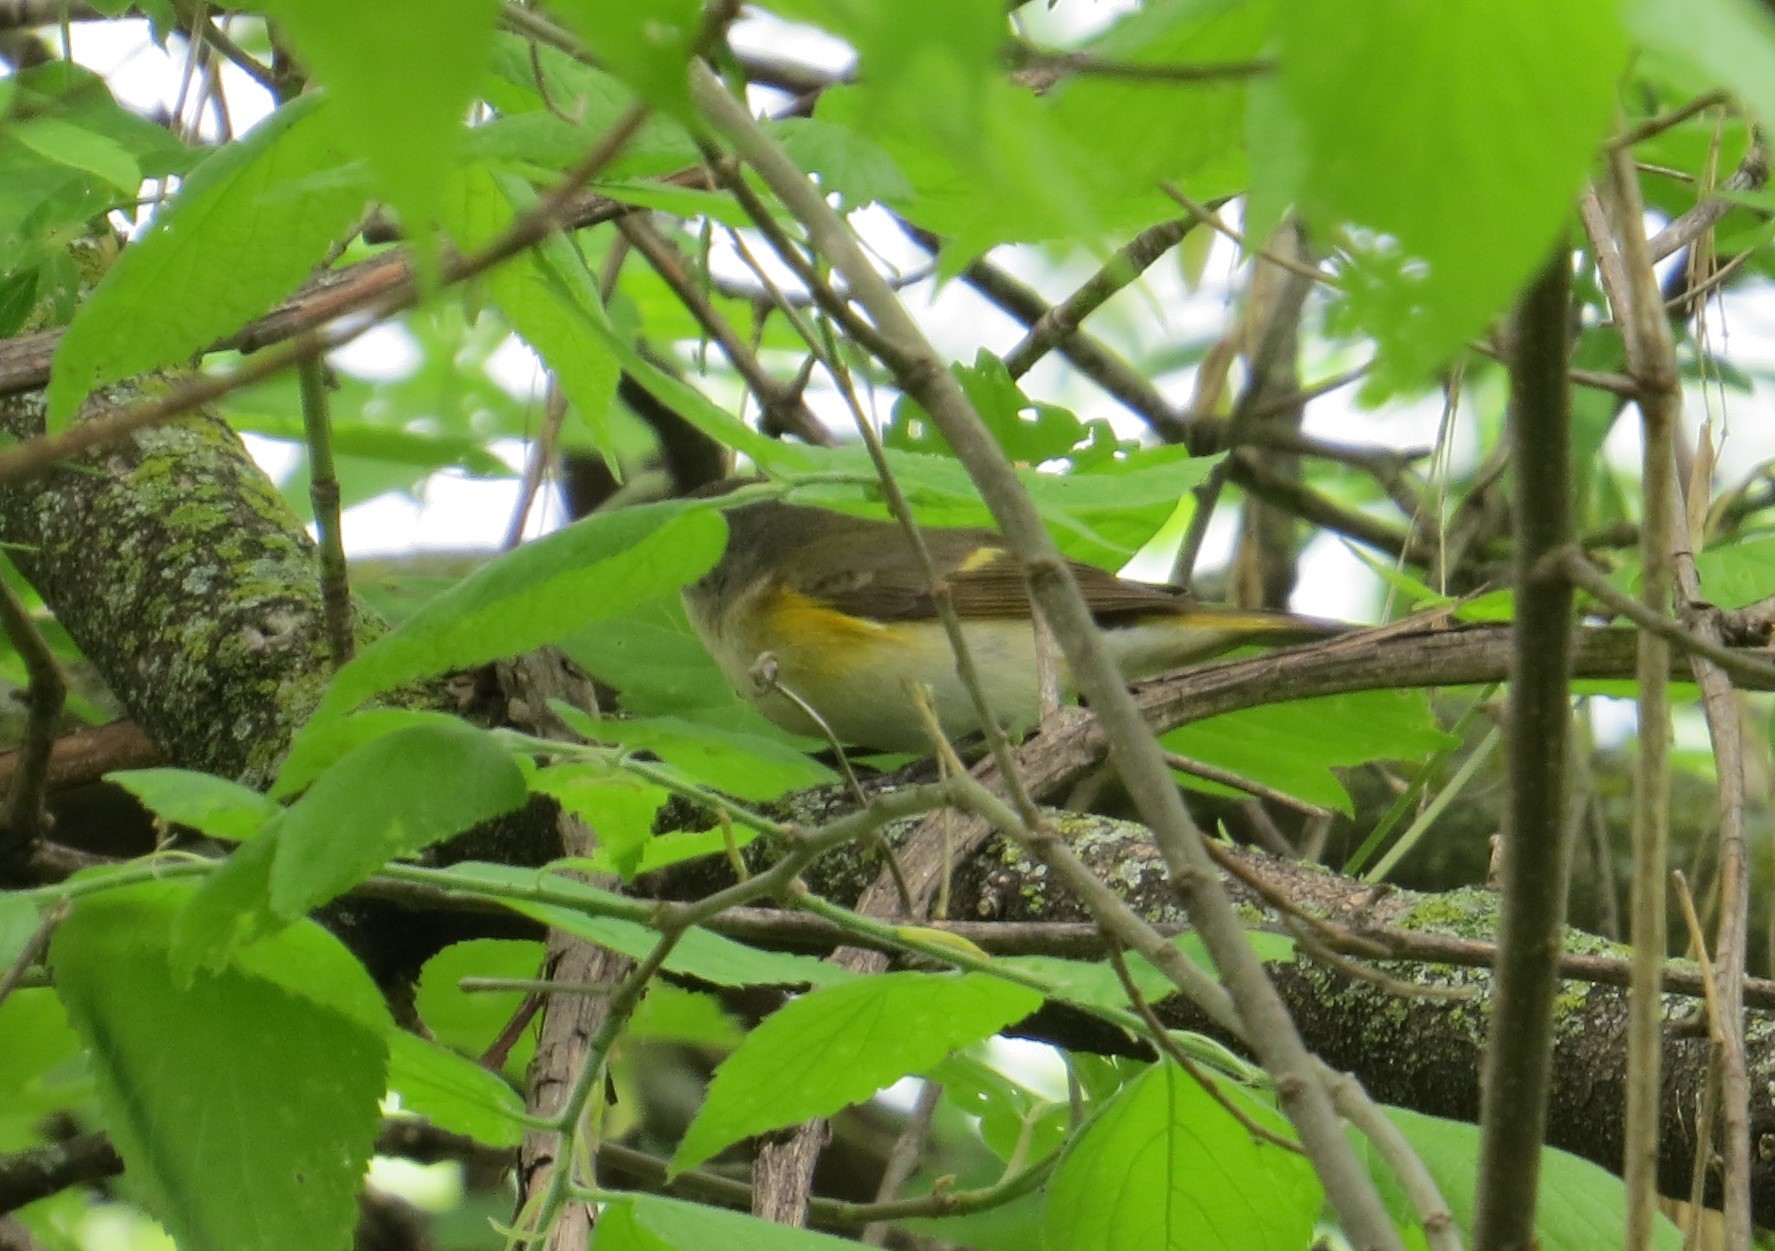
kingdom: Animalia
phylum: Chordata
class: Aves
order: Passeriformes
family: Parulidae
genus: Setophaga
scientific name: Setophaga ruticilla
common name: American redstart
